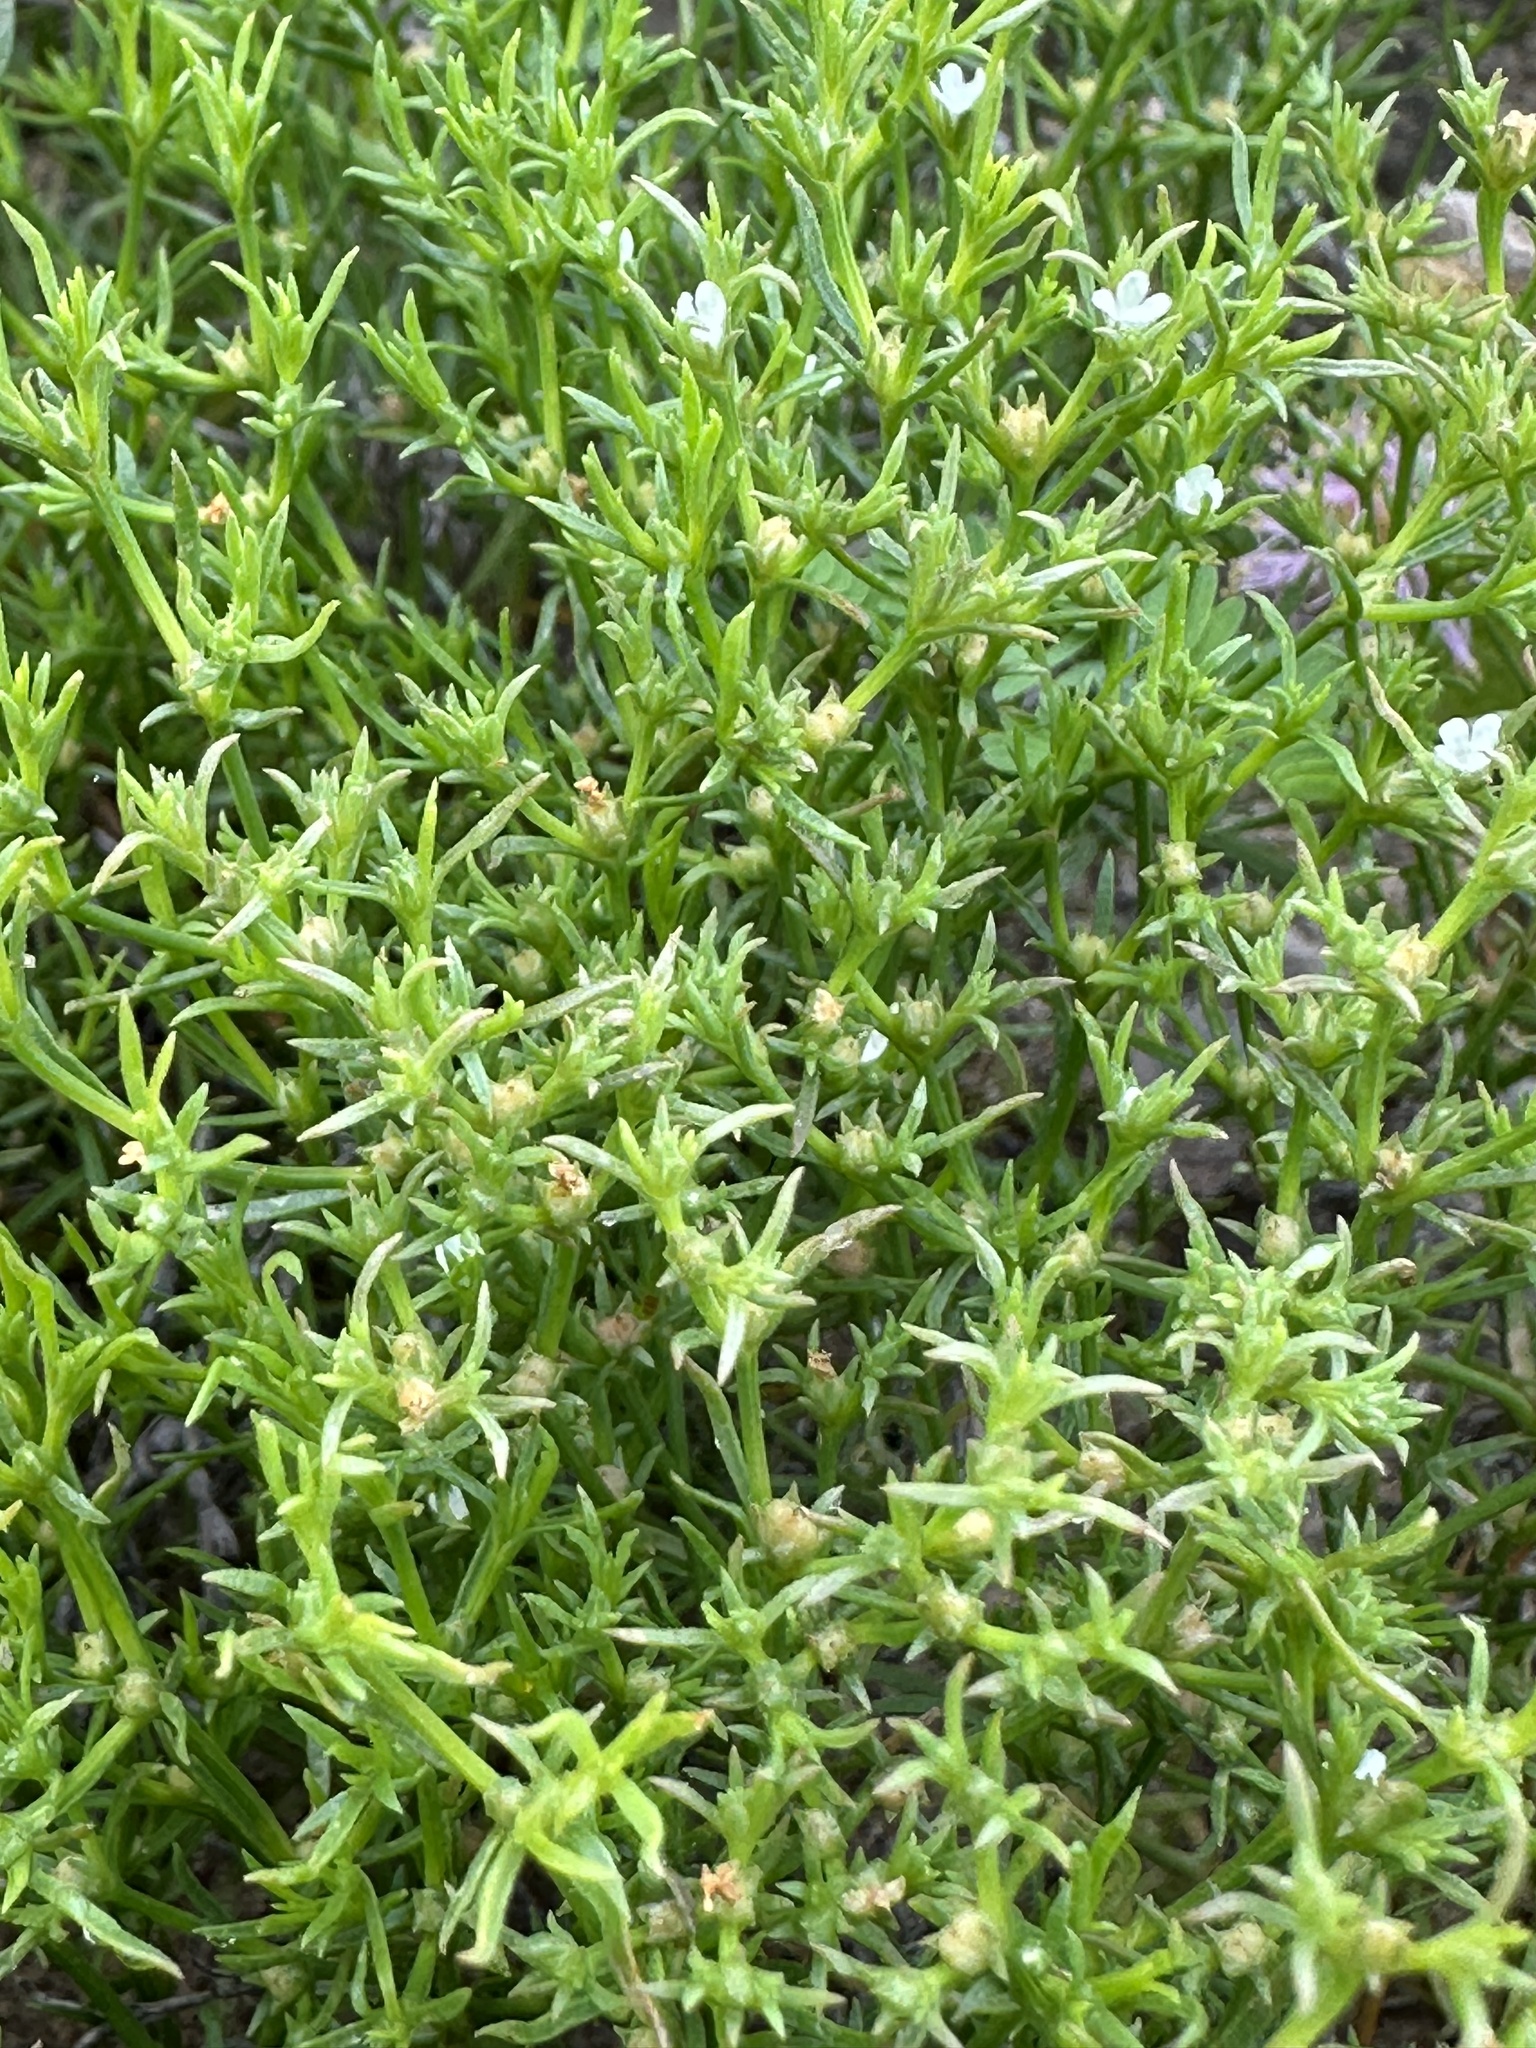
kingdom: Plantae
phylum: Tracheophyta
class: Magnoliopsida
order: Lamiales
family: Tetrachondraceae
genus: Polypremum
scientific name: Polypremum procumbens
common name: Juniper-leaf
